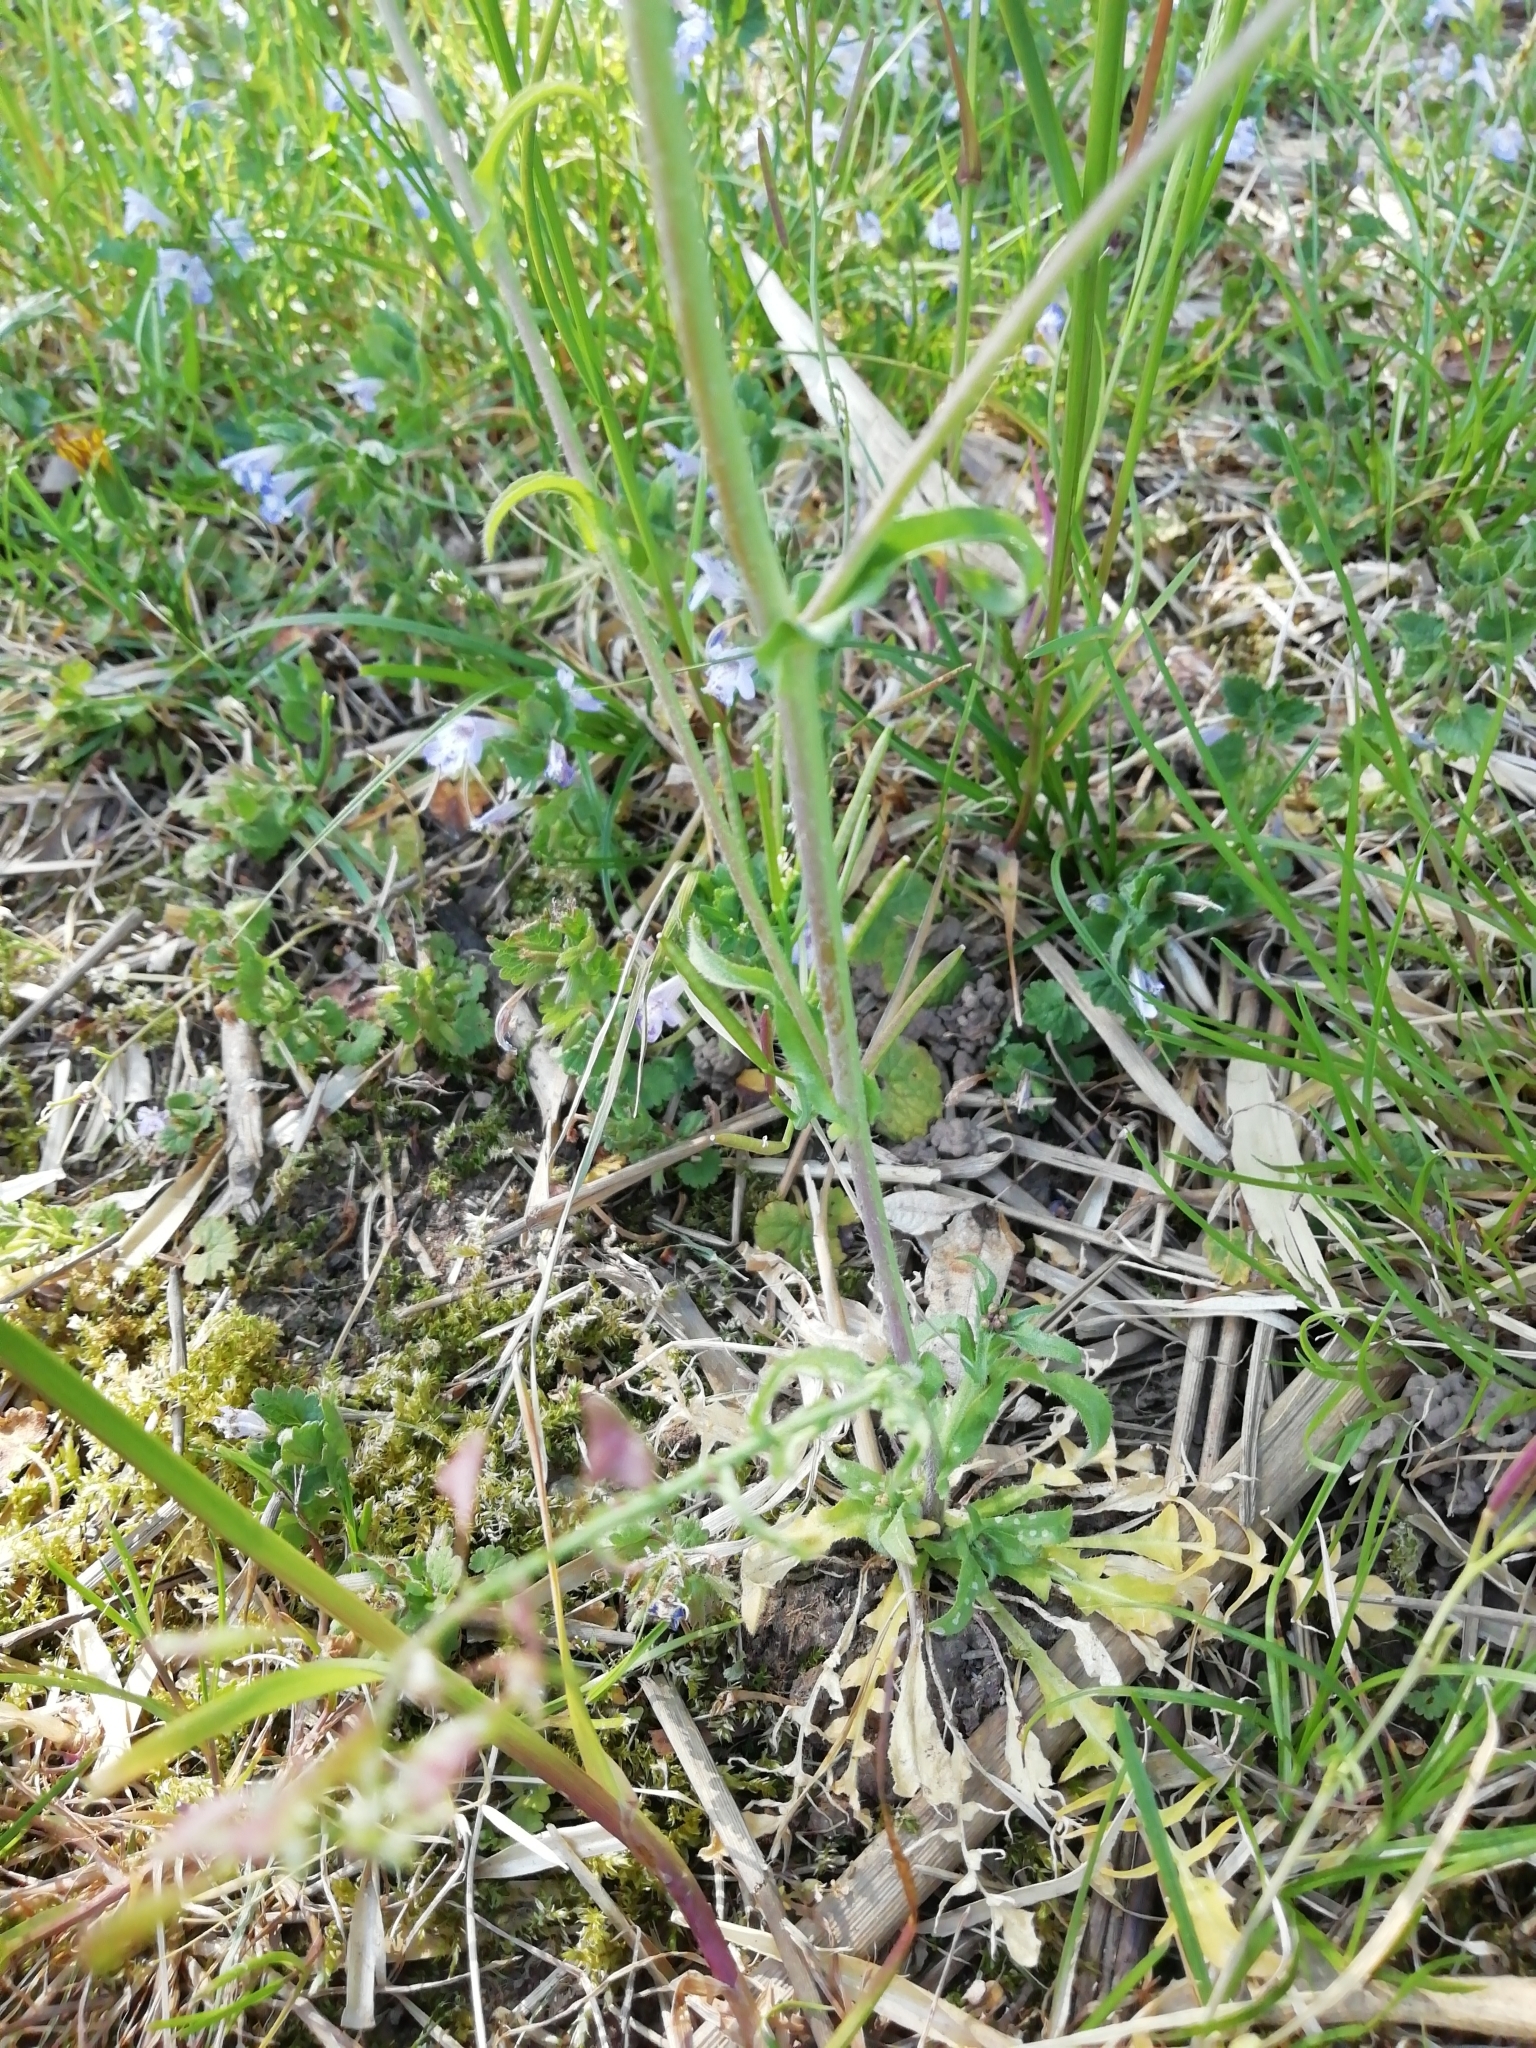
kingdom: Plantae
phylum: Tracheophyta
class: Magnoliopsida
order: Brassicales
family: Brassicaceae
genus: Capsella
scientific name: Capsella bursa-pastoris
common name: Shepherd's purse
